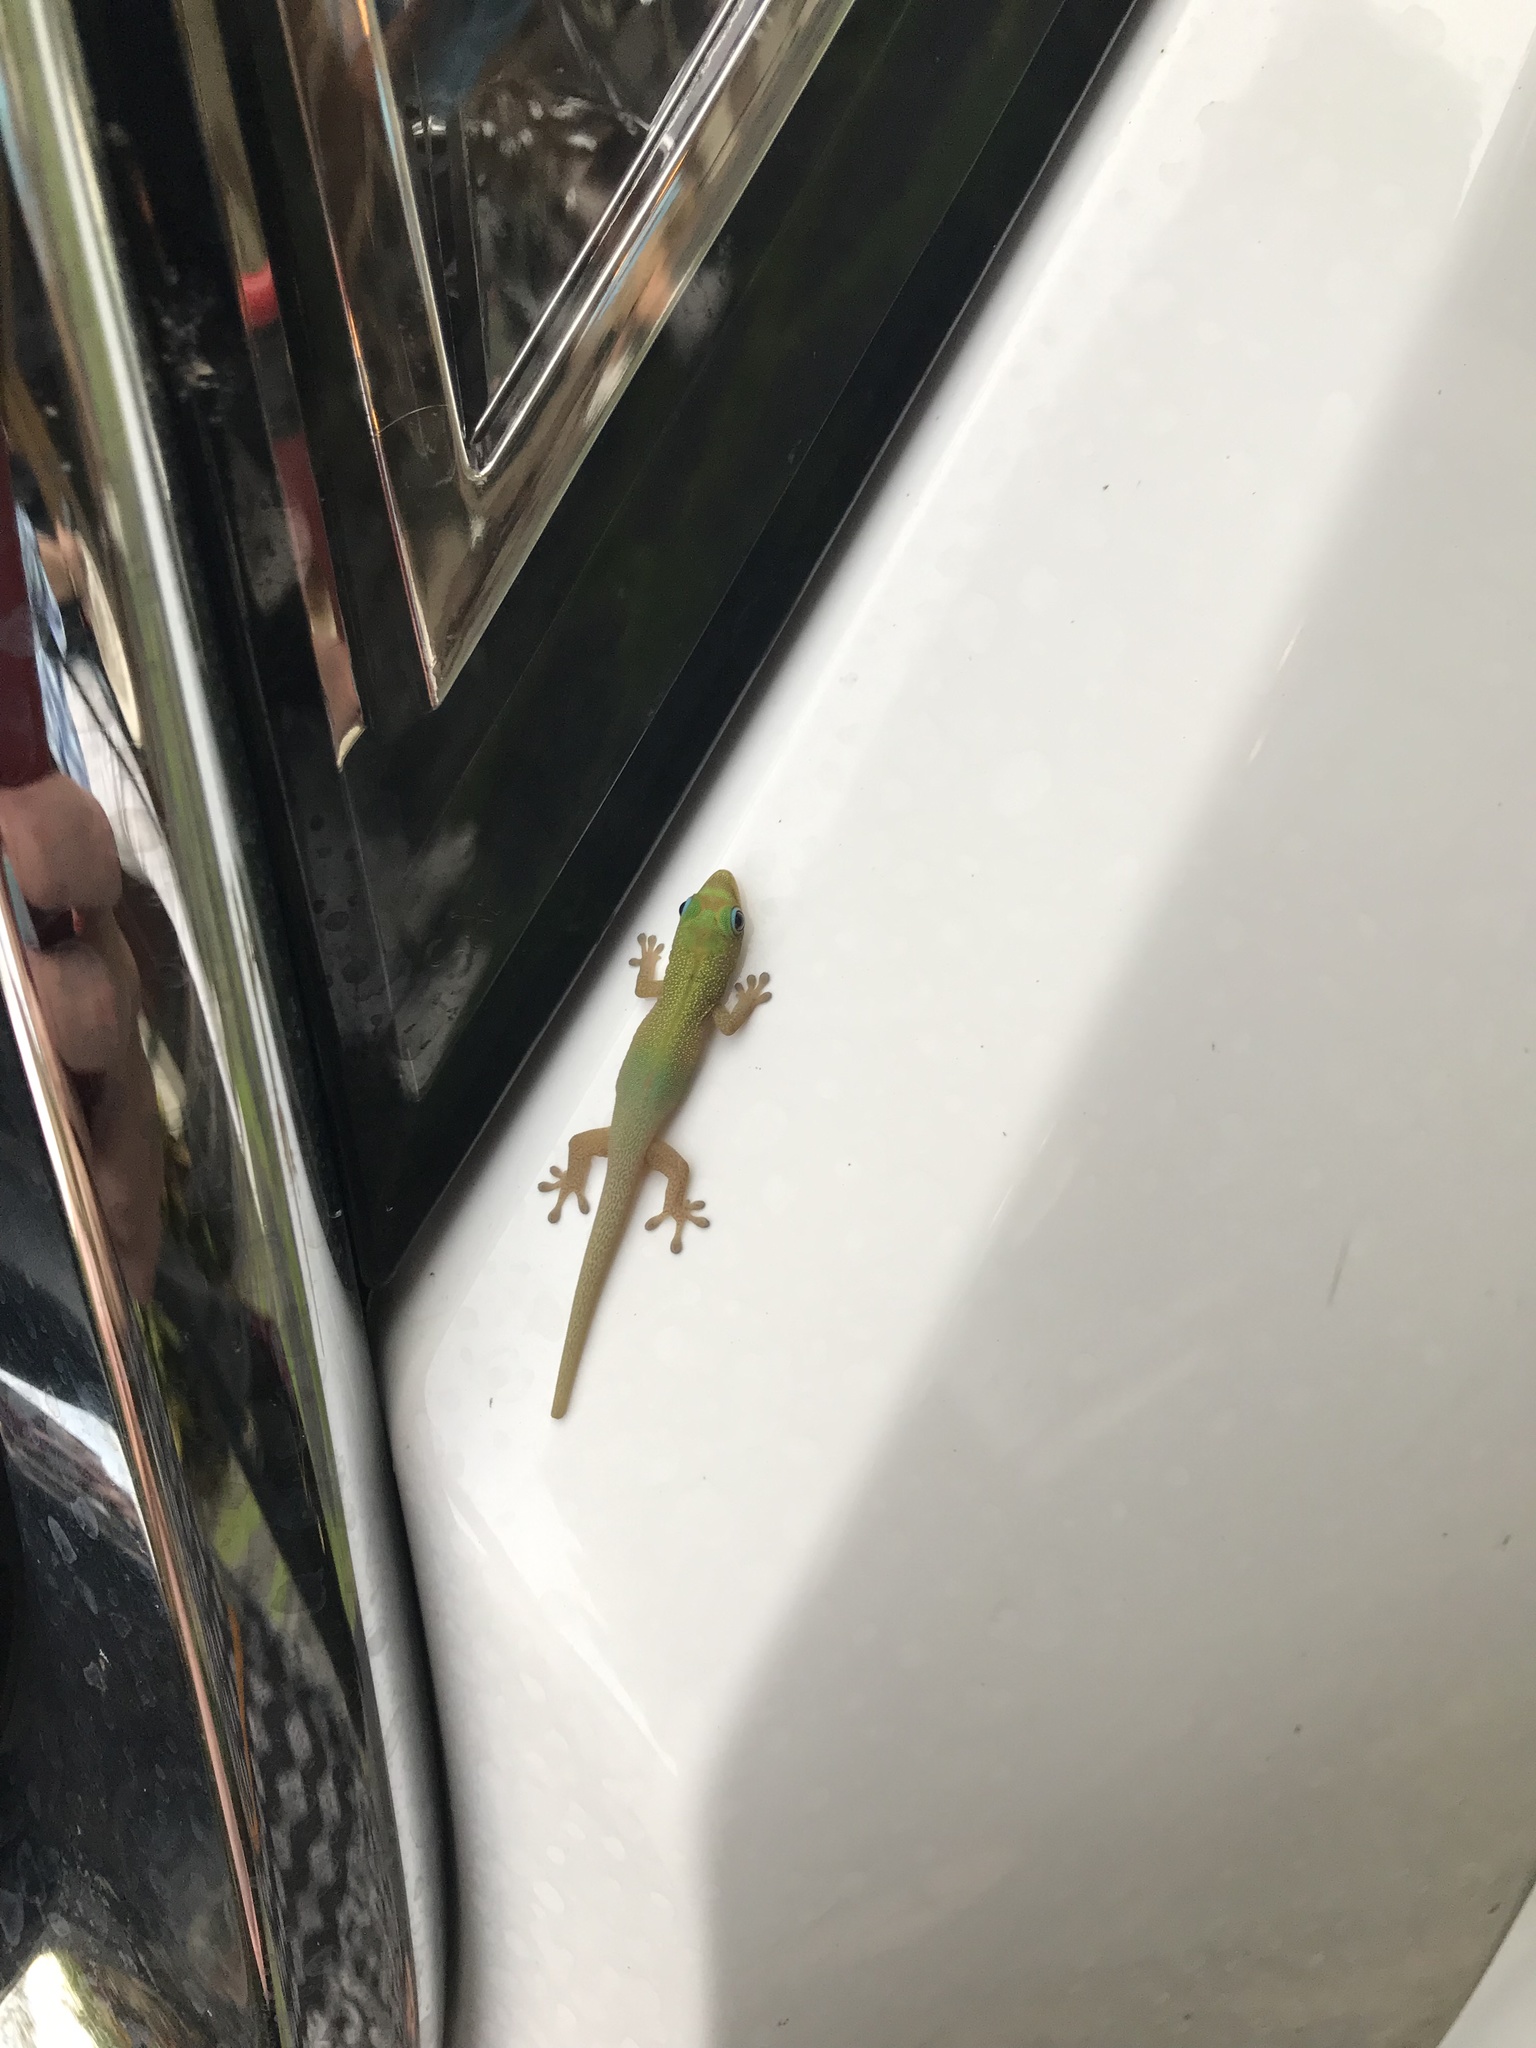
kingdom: Animalia
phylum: Chordata
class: Squamata
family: Gekkonidae
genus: Phelsuma
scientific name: Phelsuma laticauda
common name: Gold dust day gecko
